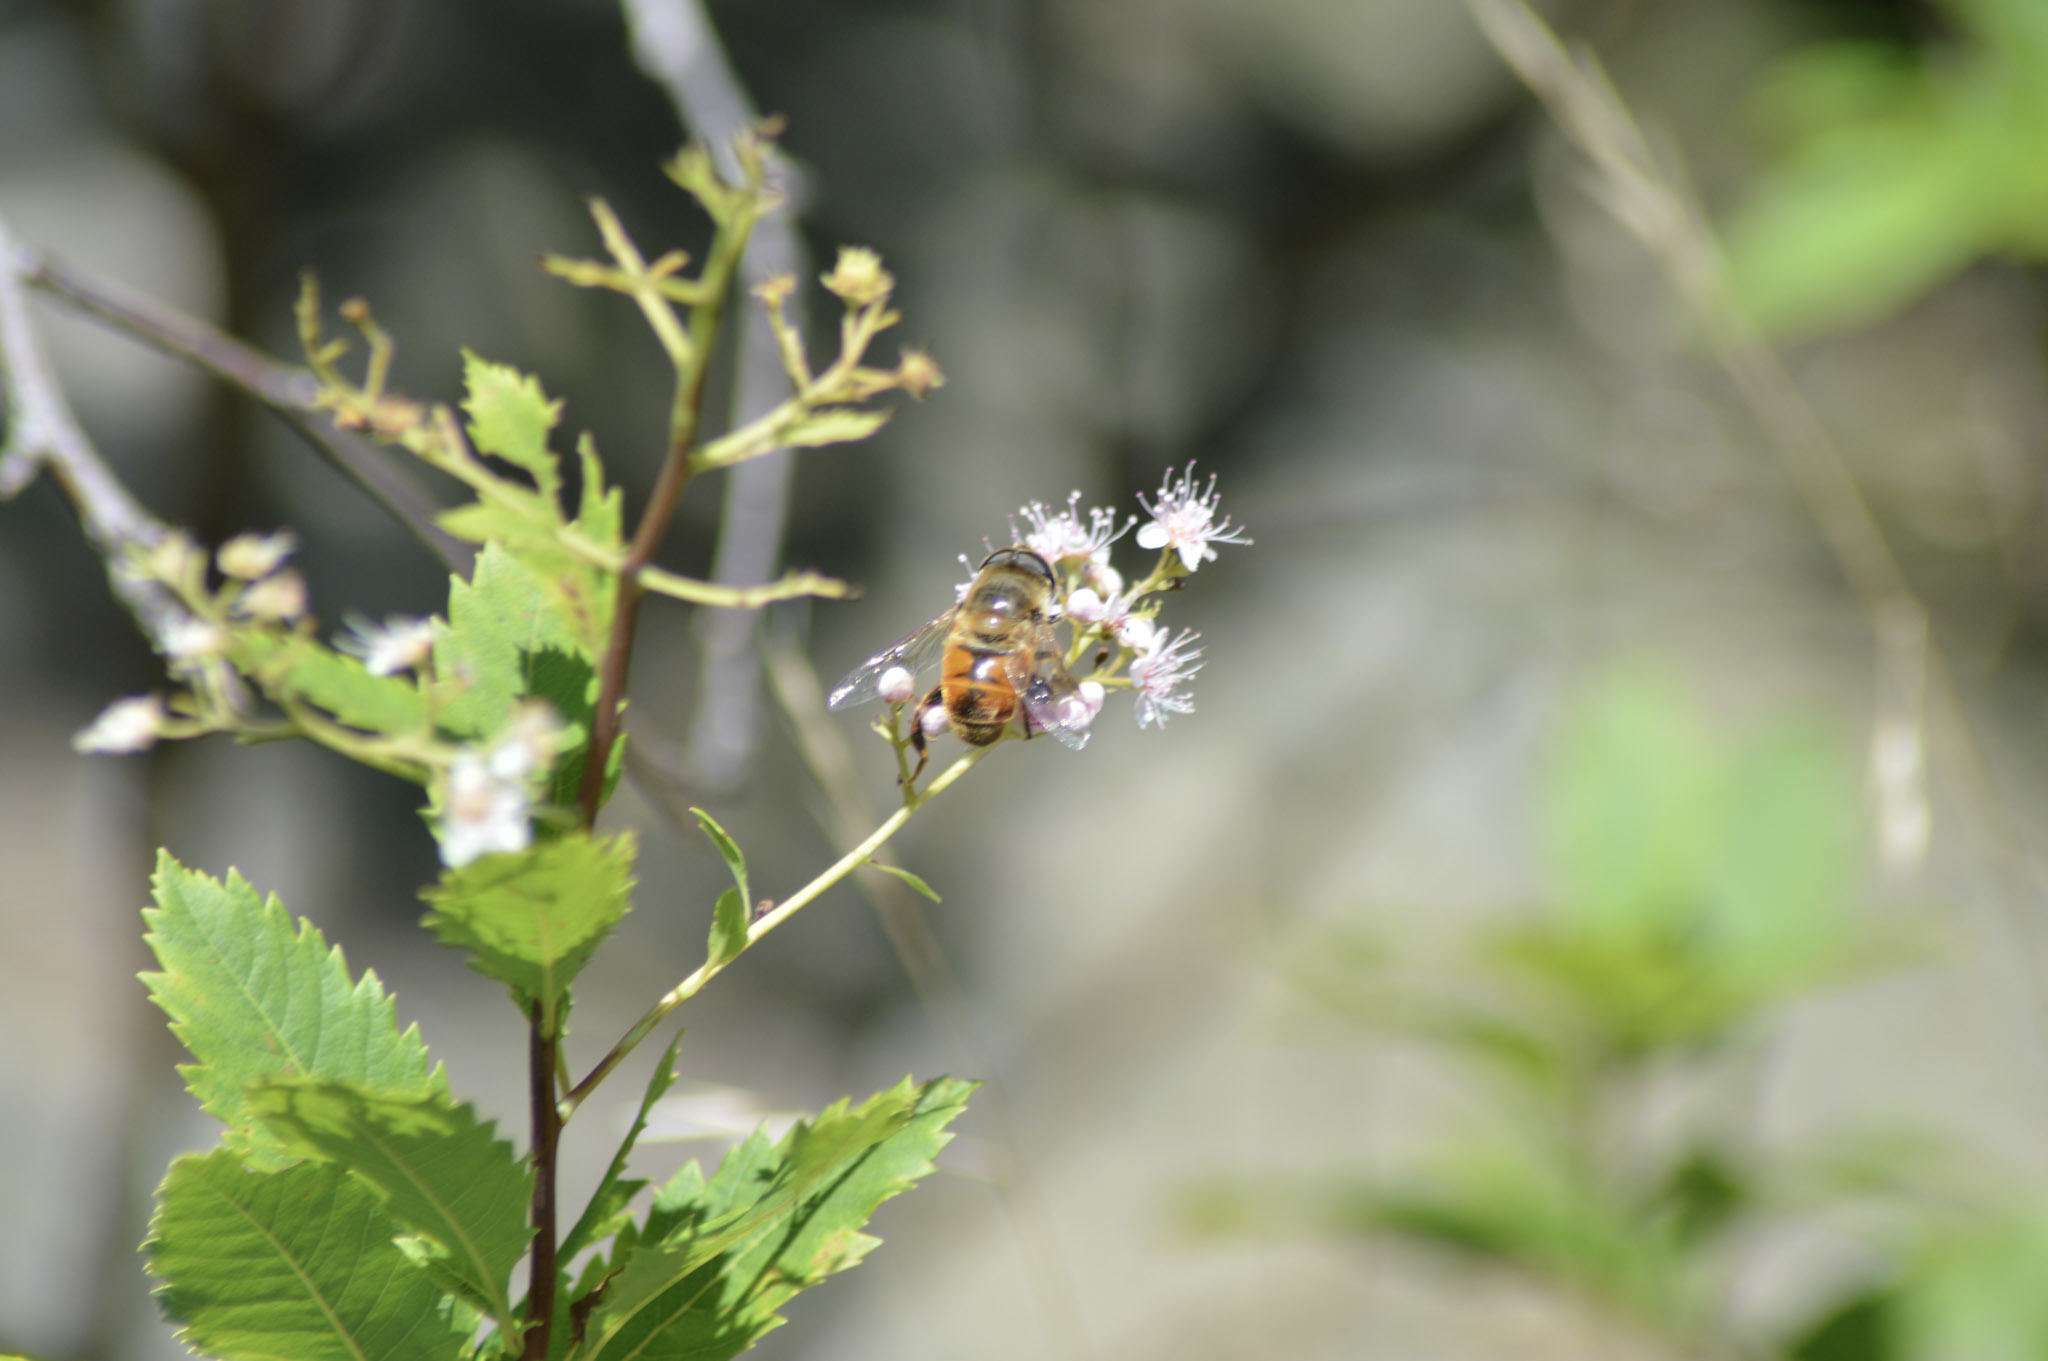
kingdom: Animalia
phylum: Arthropoda
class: Insecta
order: Diptera
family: Syrphidae
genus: Eristalis
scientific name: Eristalis tenax
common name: Drone fly
